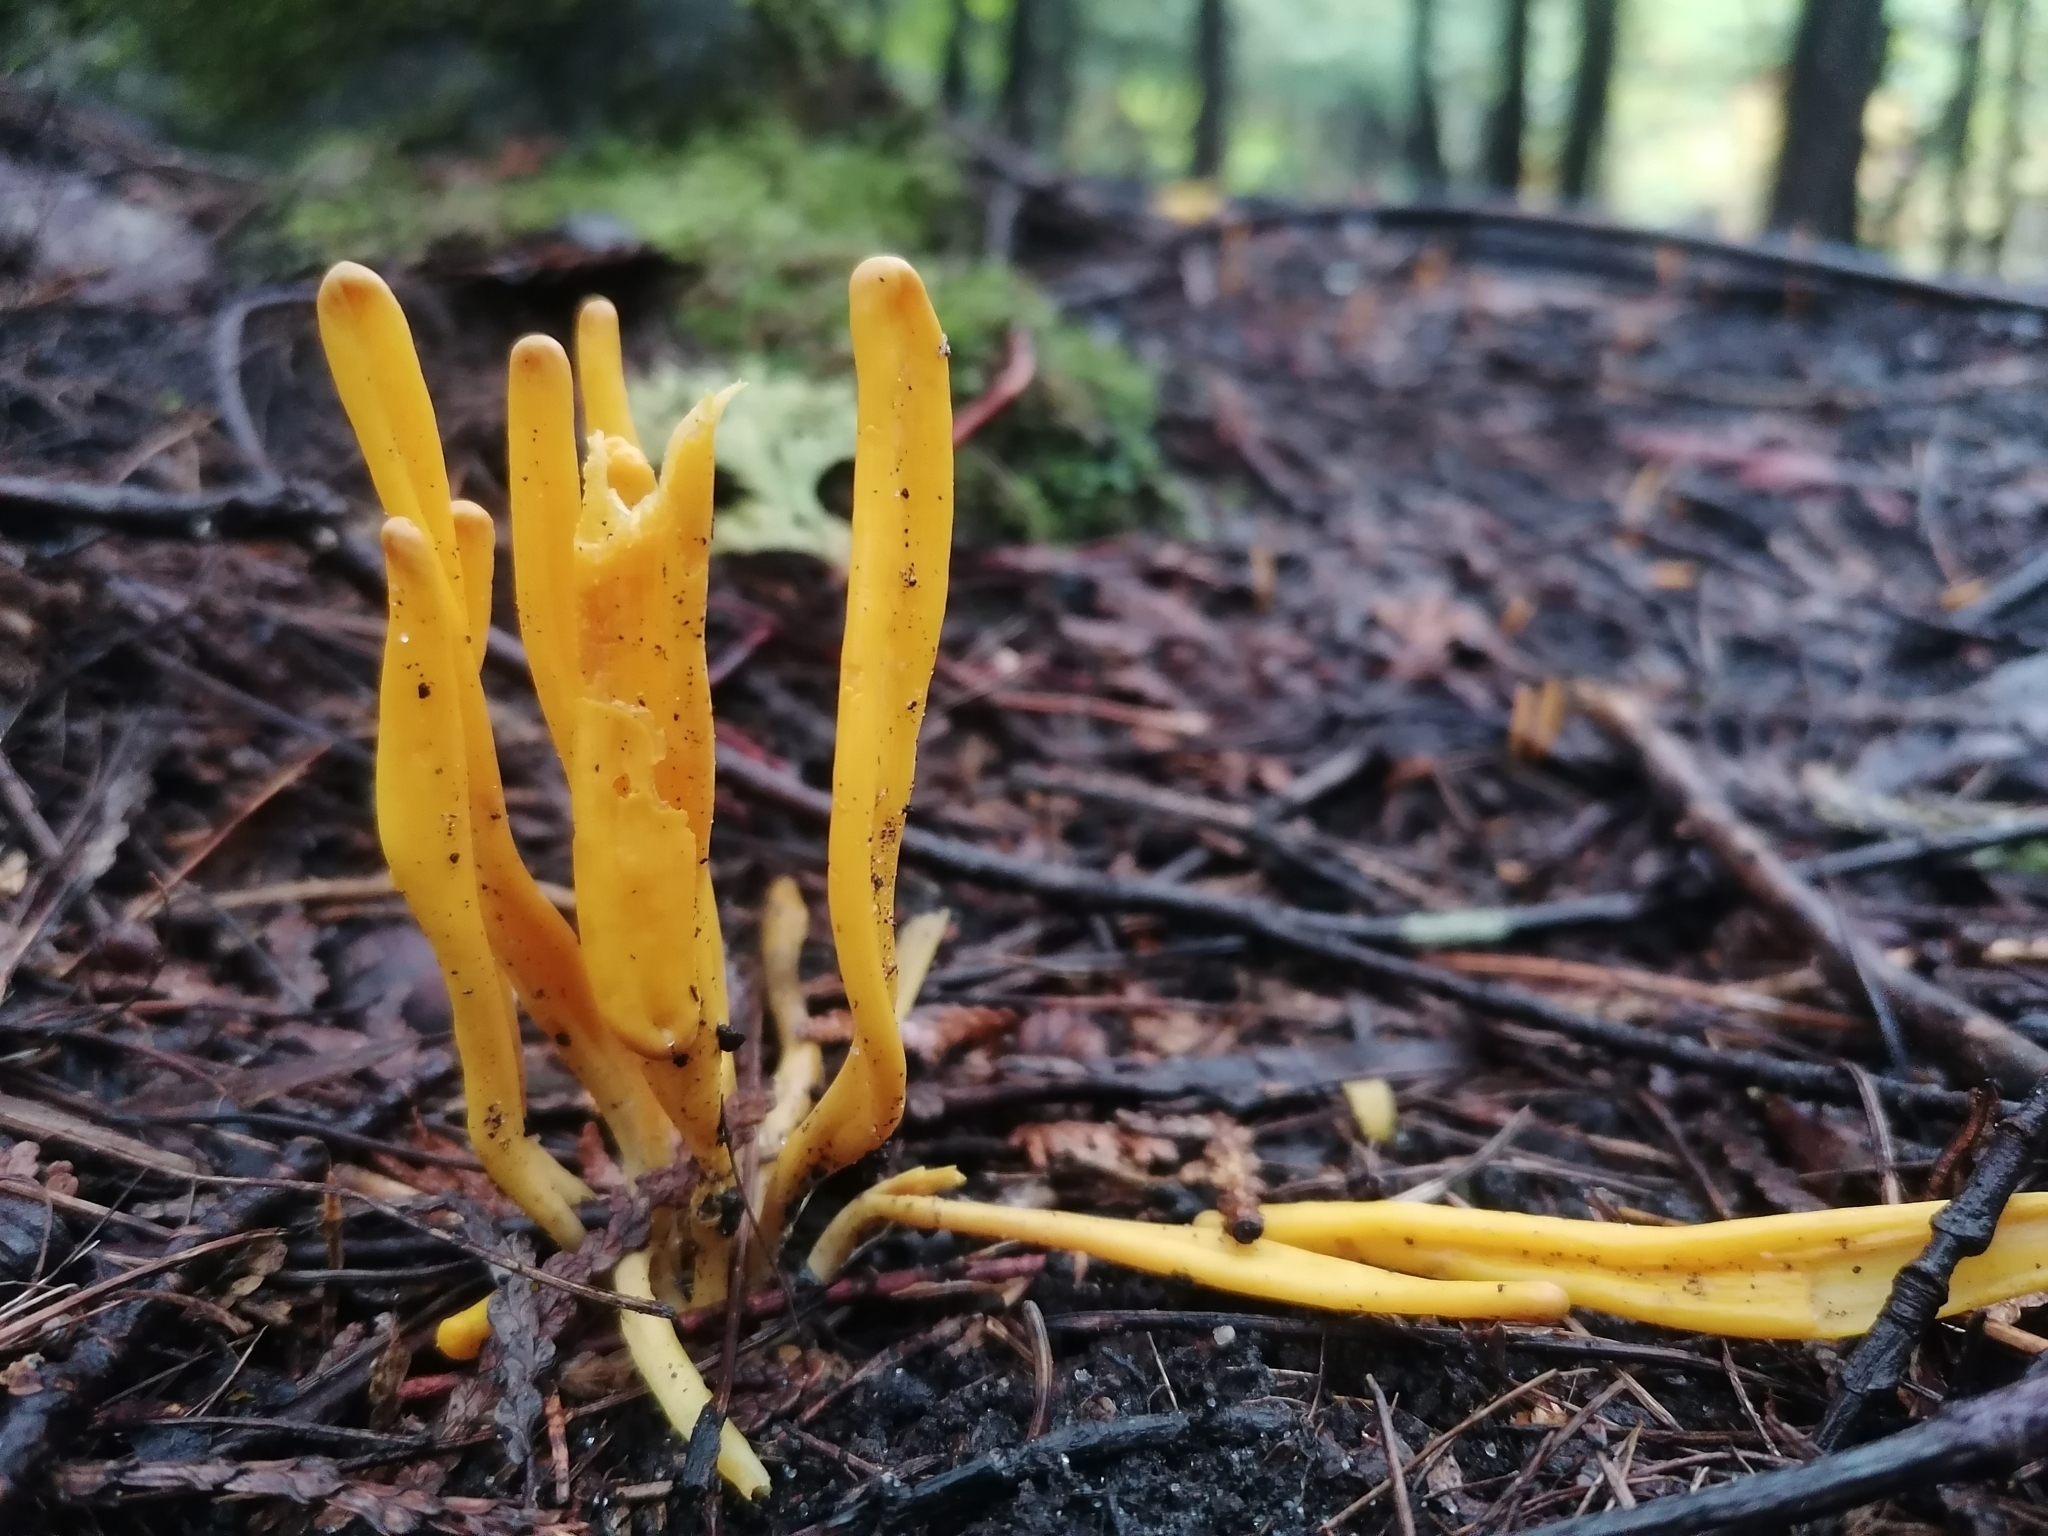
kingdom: Fungi
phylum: Basidiomycota
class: Agaricomycetes
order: Agaricales
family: Clavariaceae
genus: Clavulinopsis
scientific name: Clavulinopsis fusiformis
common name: Golden spindles
